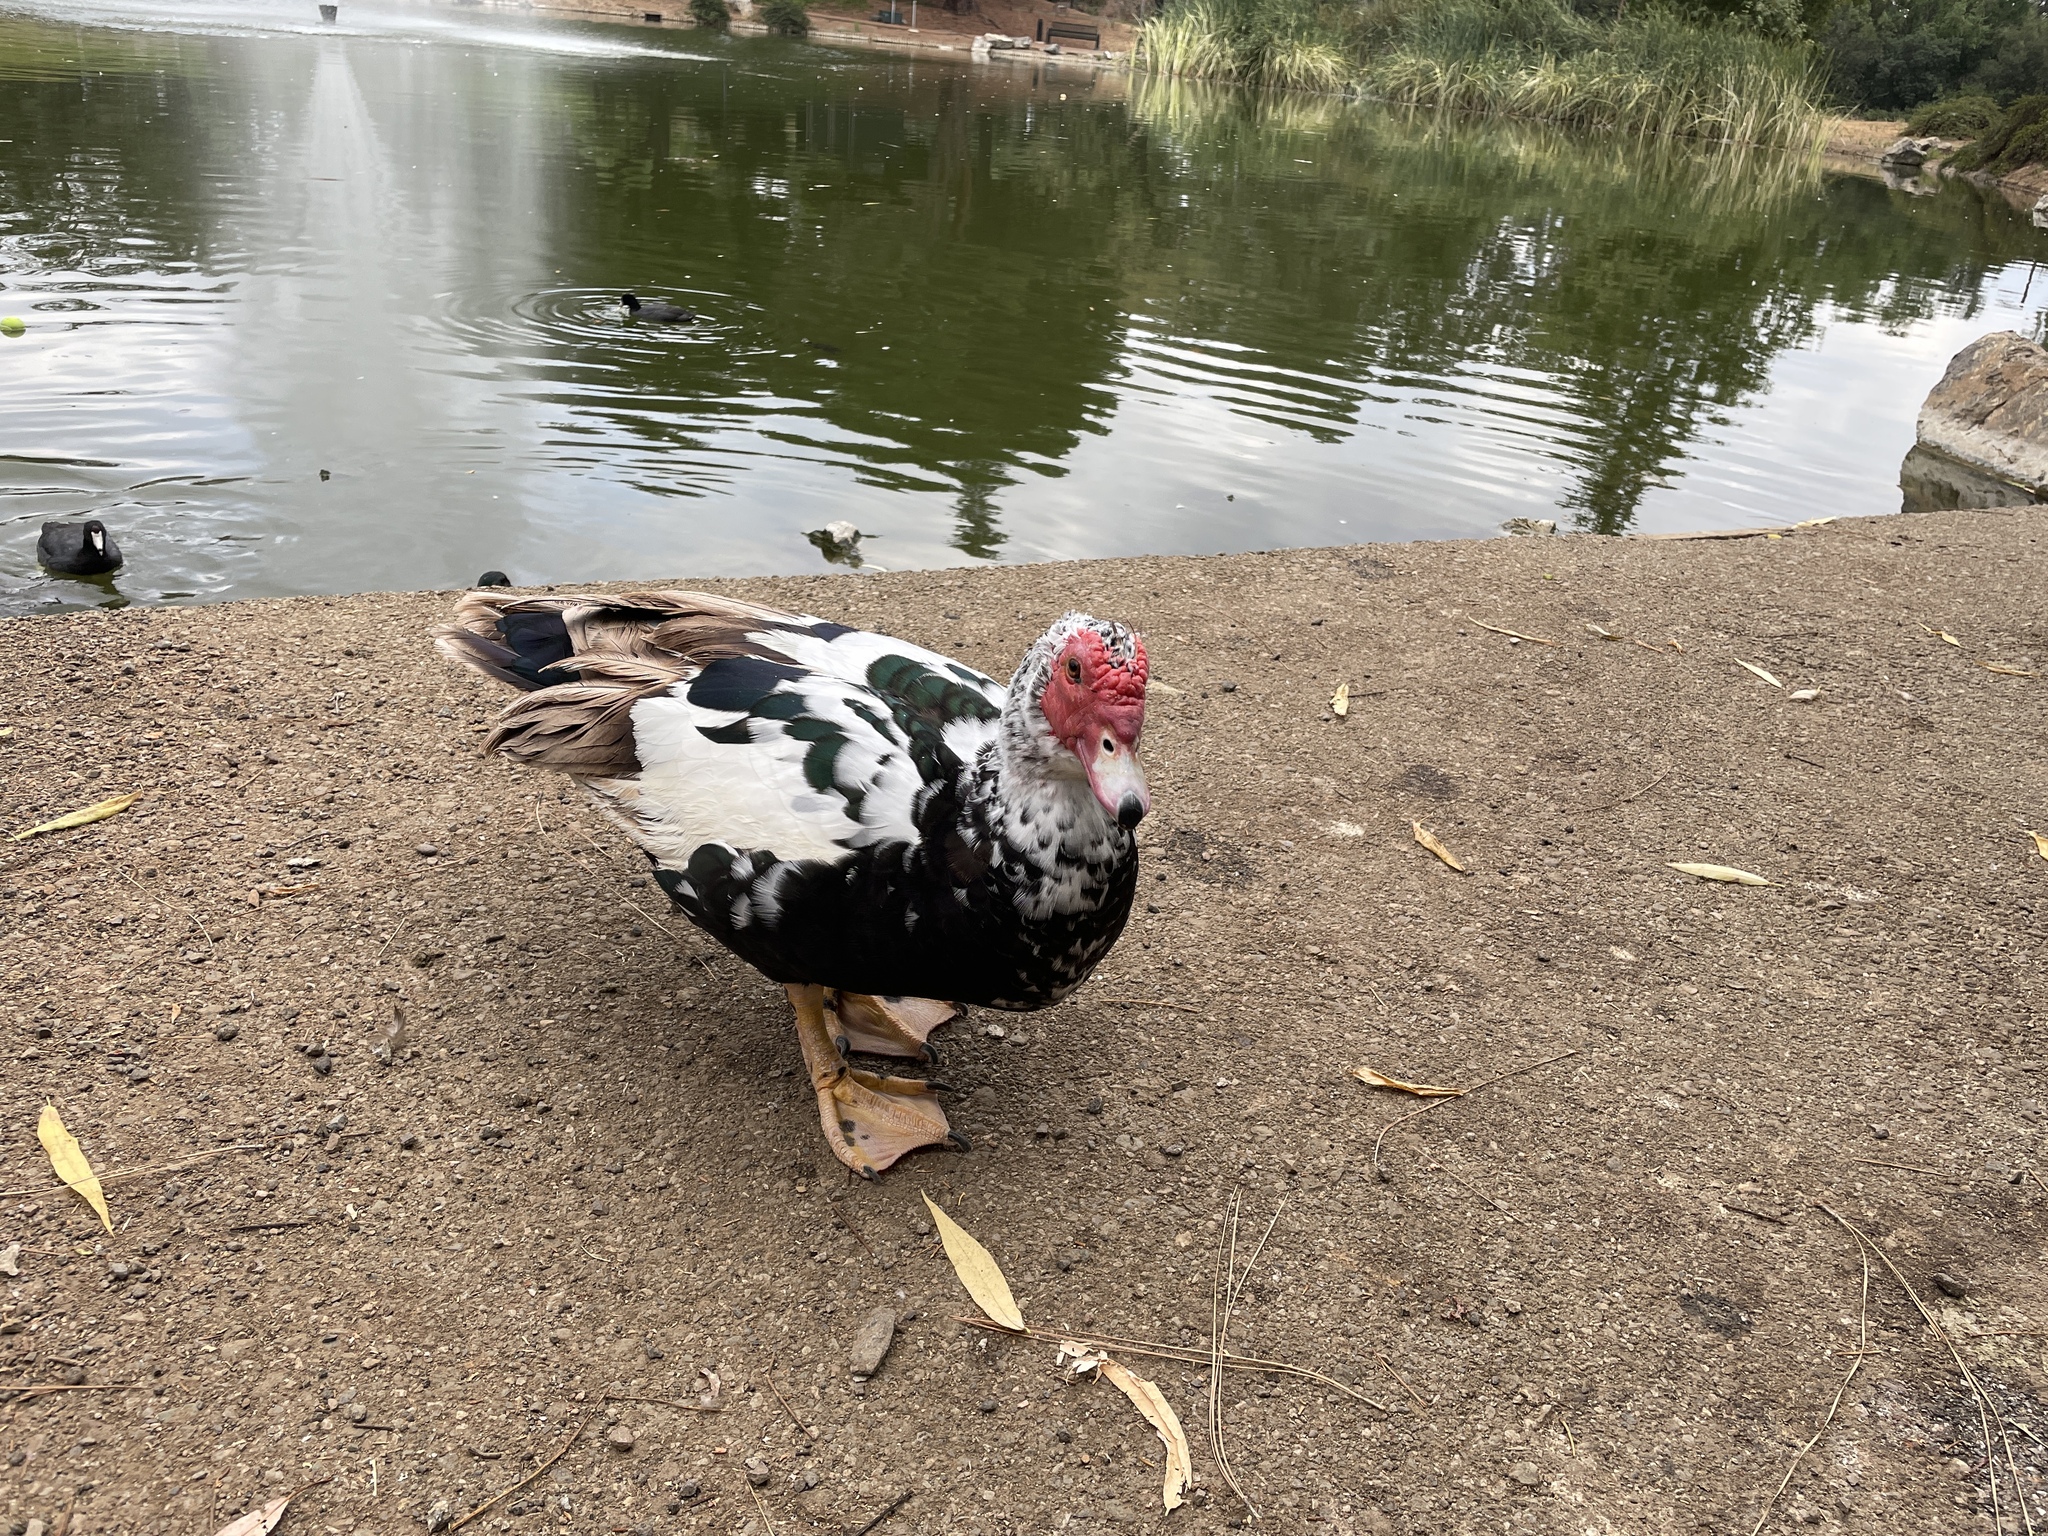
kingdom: Animalia
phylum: Chordata
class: Aves
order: Anseriformes
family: Anatidae
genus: Cairina
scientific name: Cairina moschata
